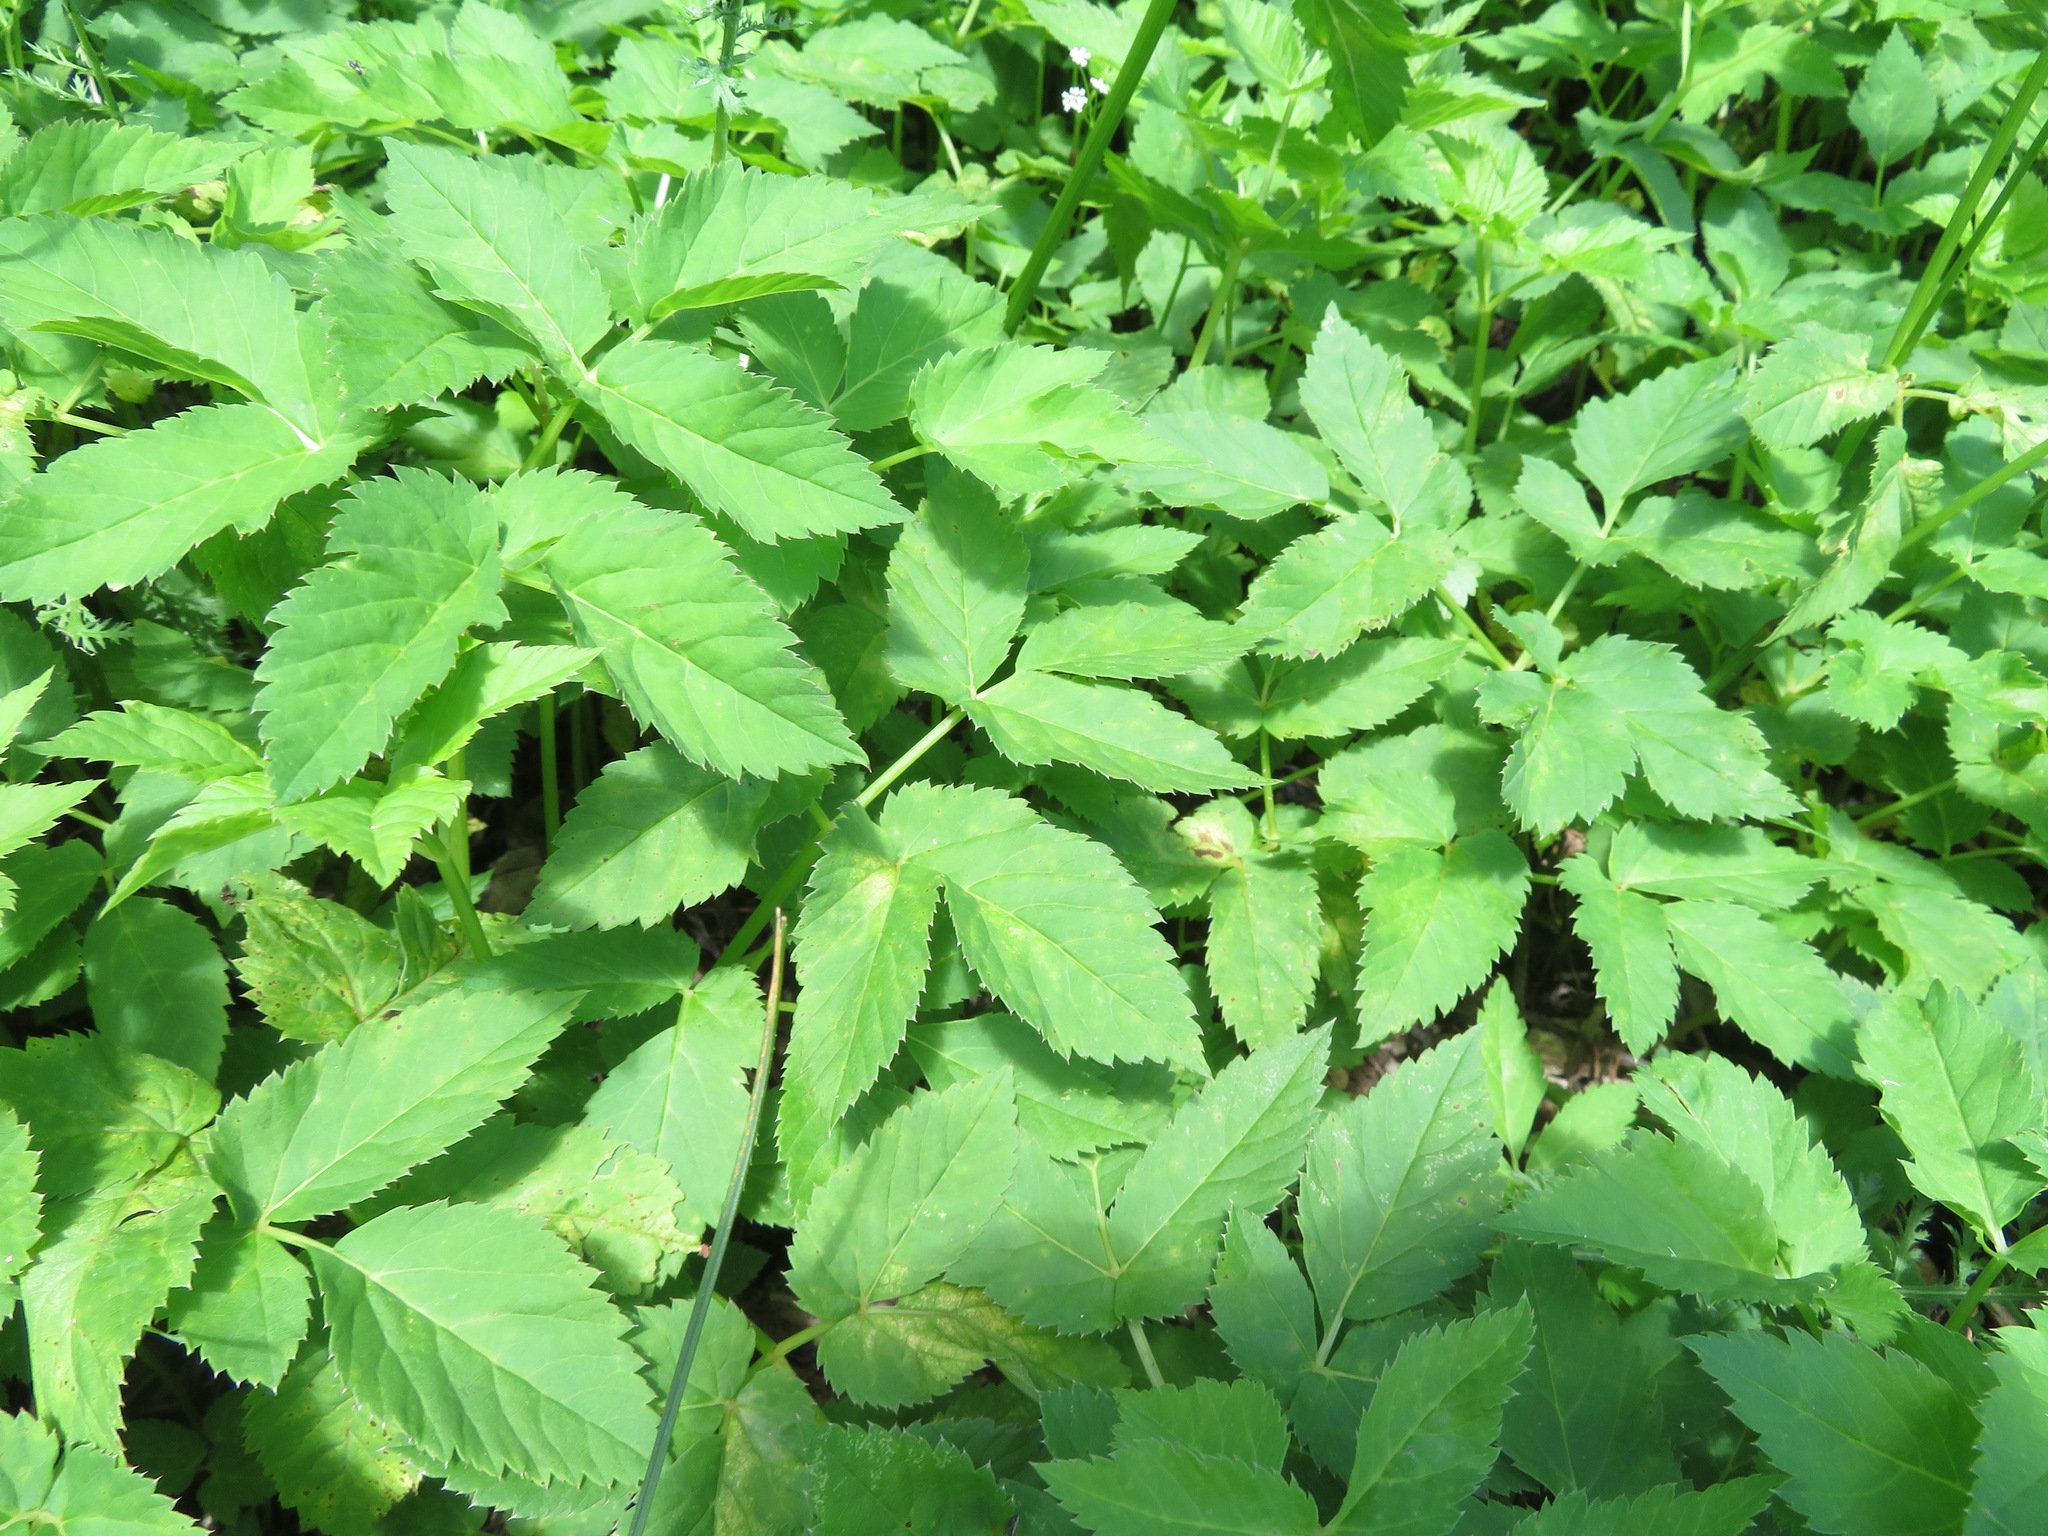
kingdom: Plantae
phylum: Tracheophyta
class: Magnoliopsida
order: Apiales
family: Apiaceae
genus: Aegopodium
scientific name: Aegopodium podagraria
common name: Ground-elder
